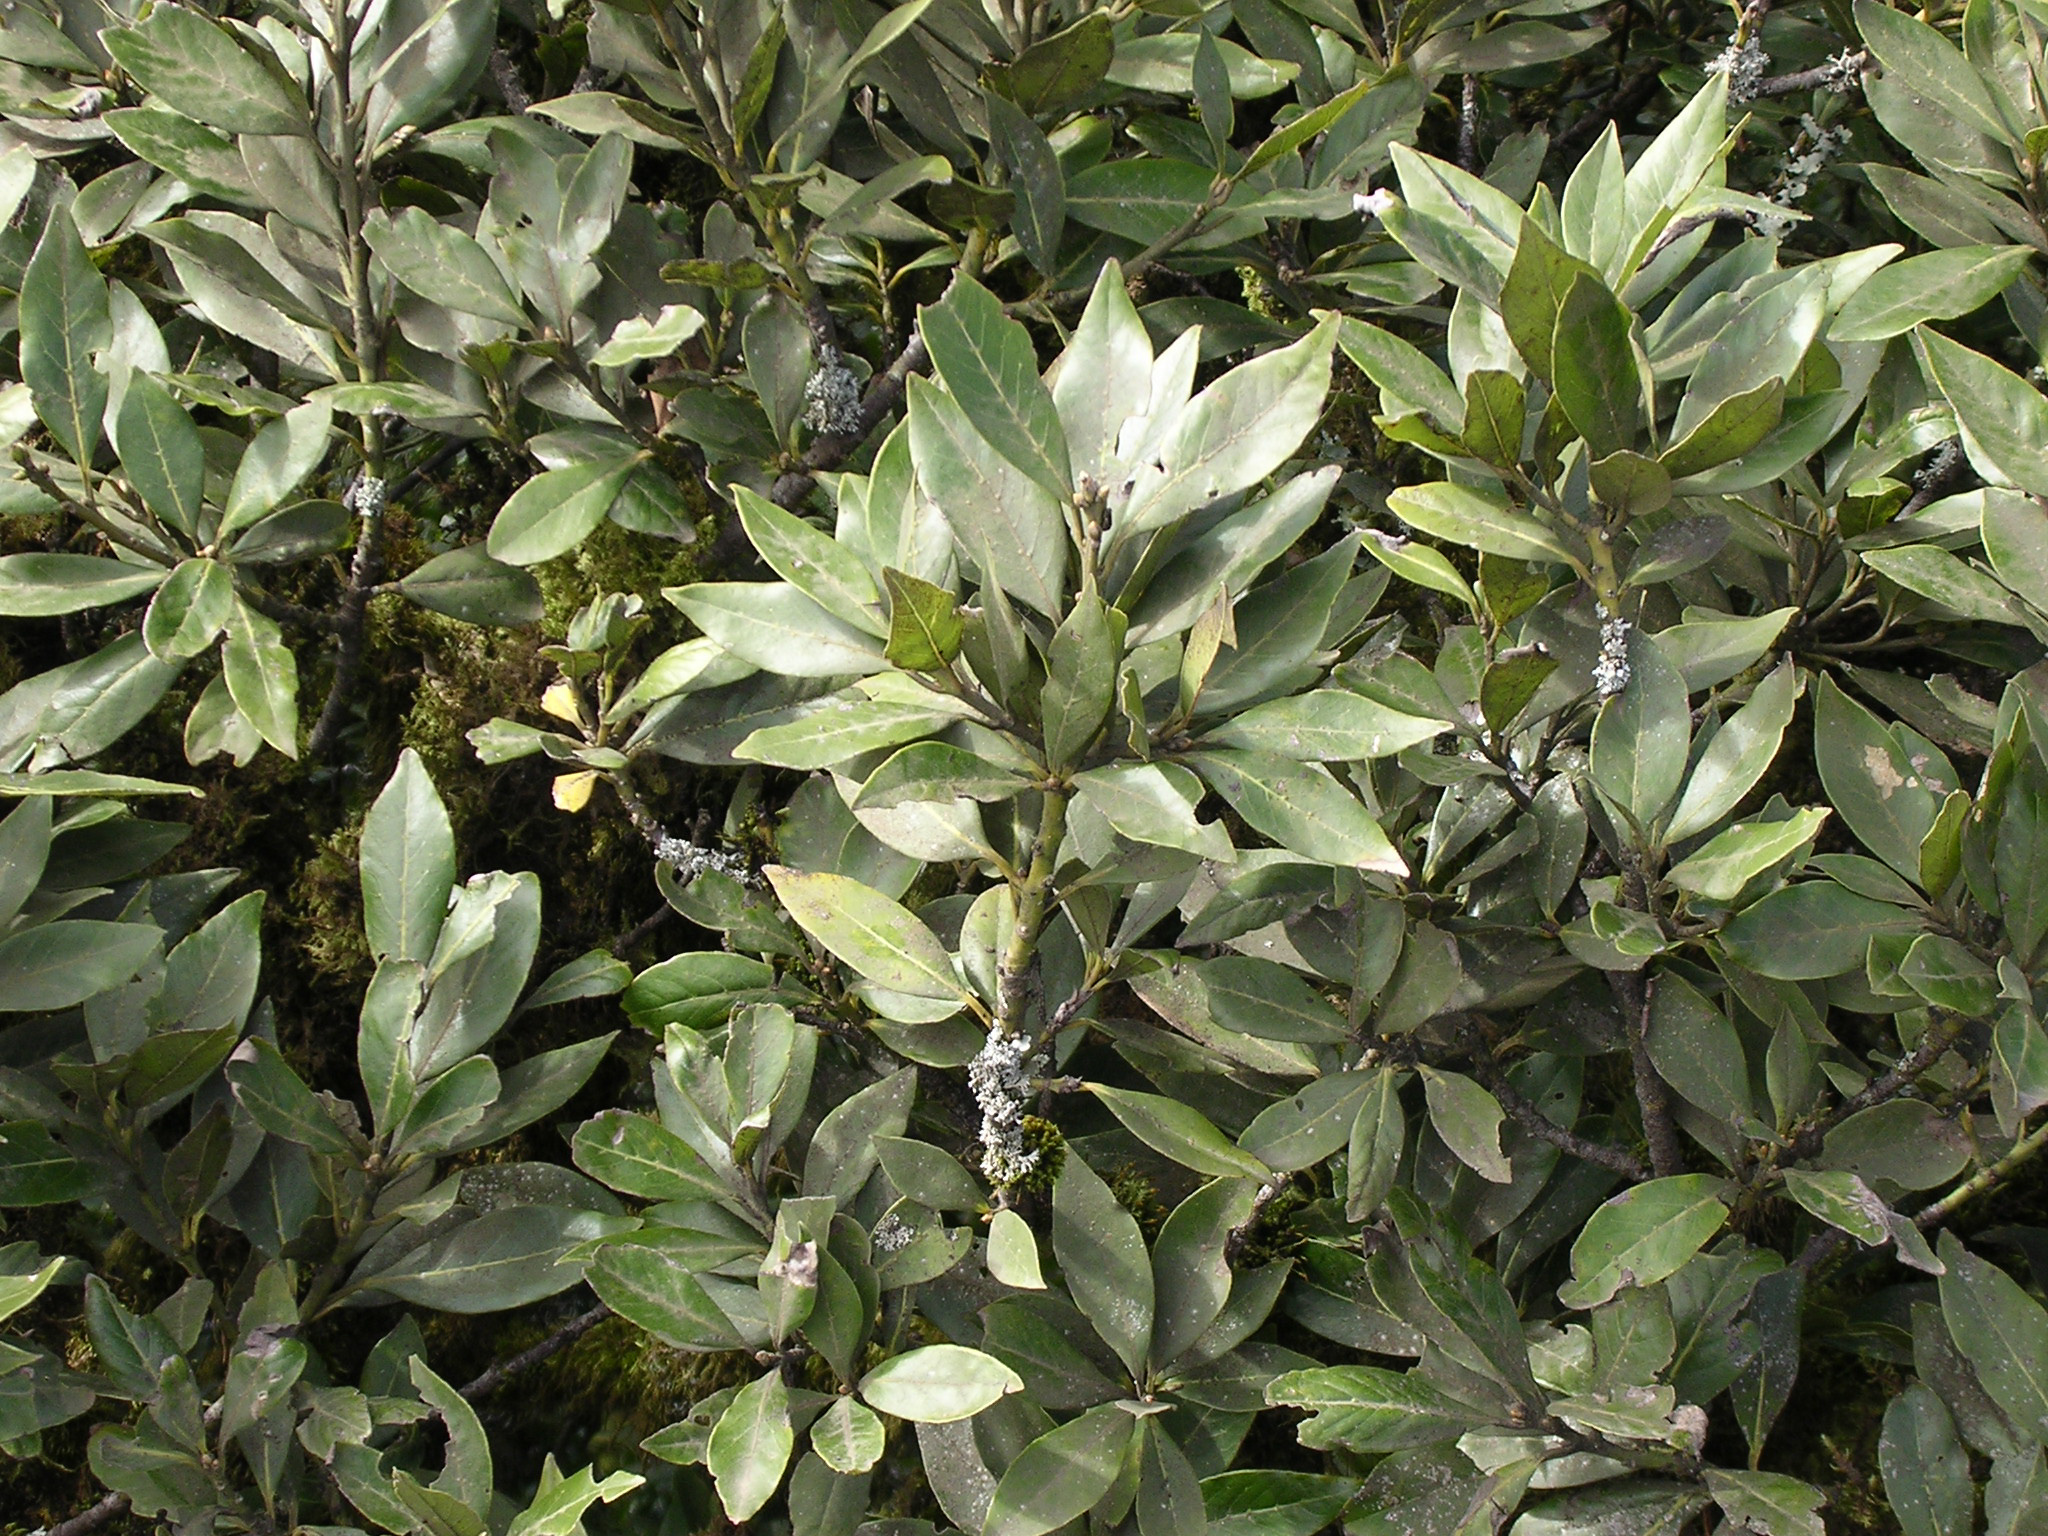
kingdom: Plantae
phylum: Tracheophyta
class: Magnoliopsida
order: Laurales
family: Lauraceae
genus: Laurus
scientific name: Laurus novocanariensis
